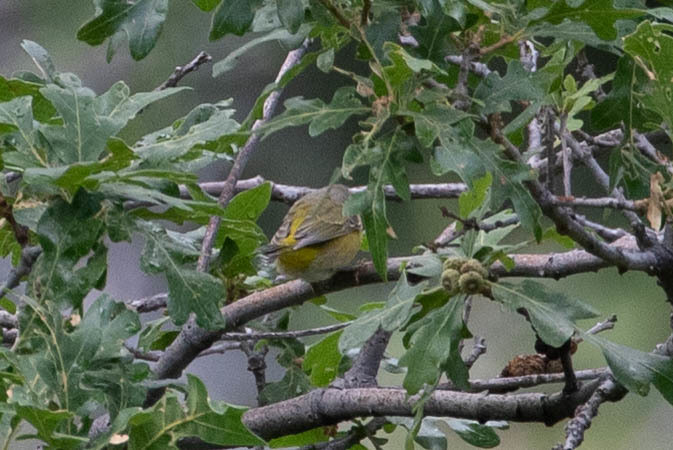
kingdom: Animalia
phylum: Chordata
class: Aves
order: Passeriformes
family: Parulidae
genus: Leiothlypis
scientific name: Leiothlypis ruficapilla
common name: Nashville warbler
